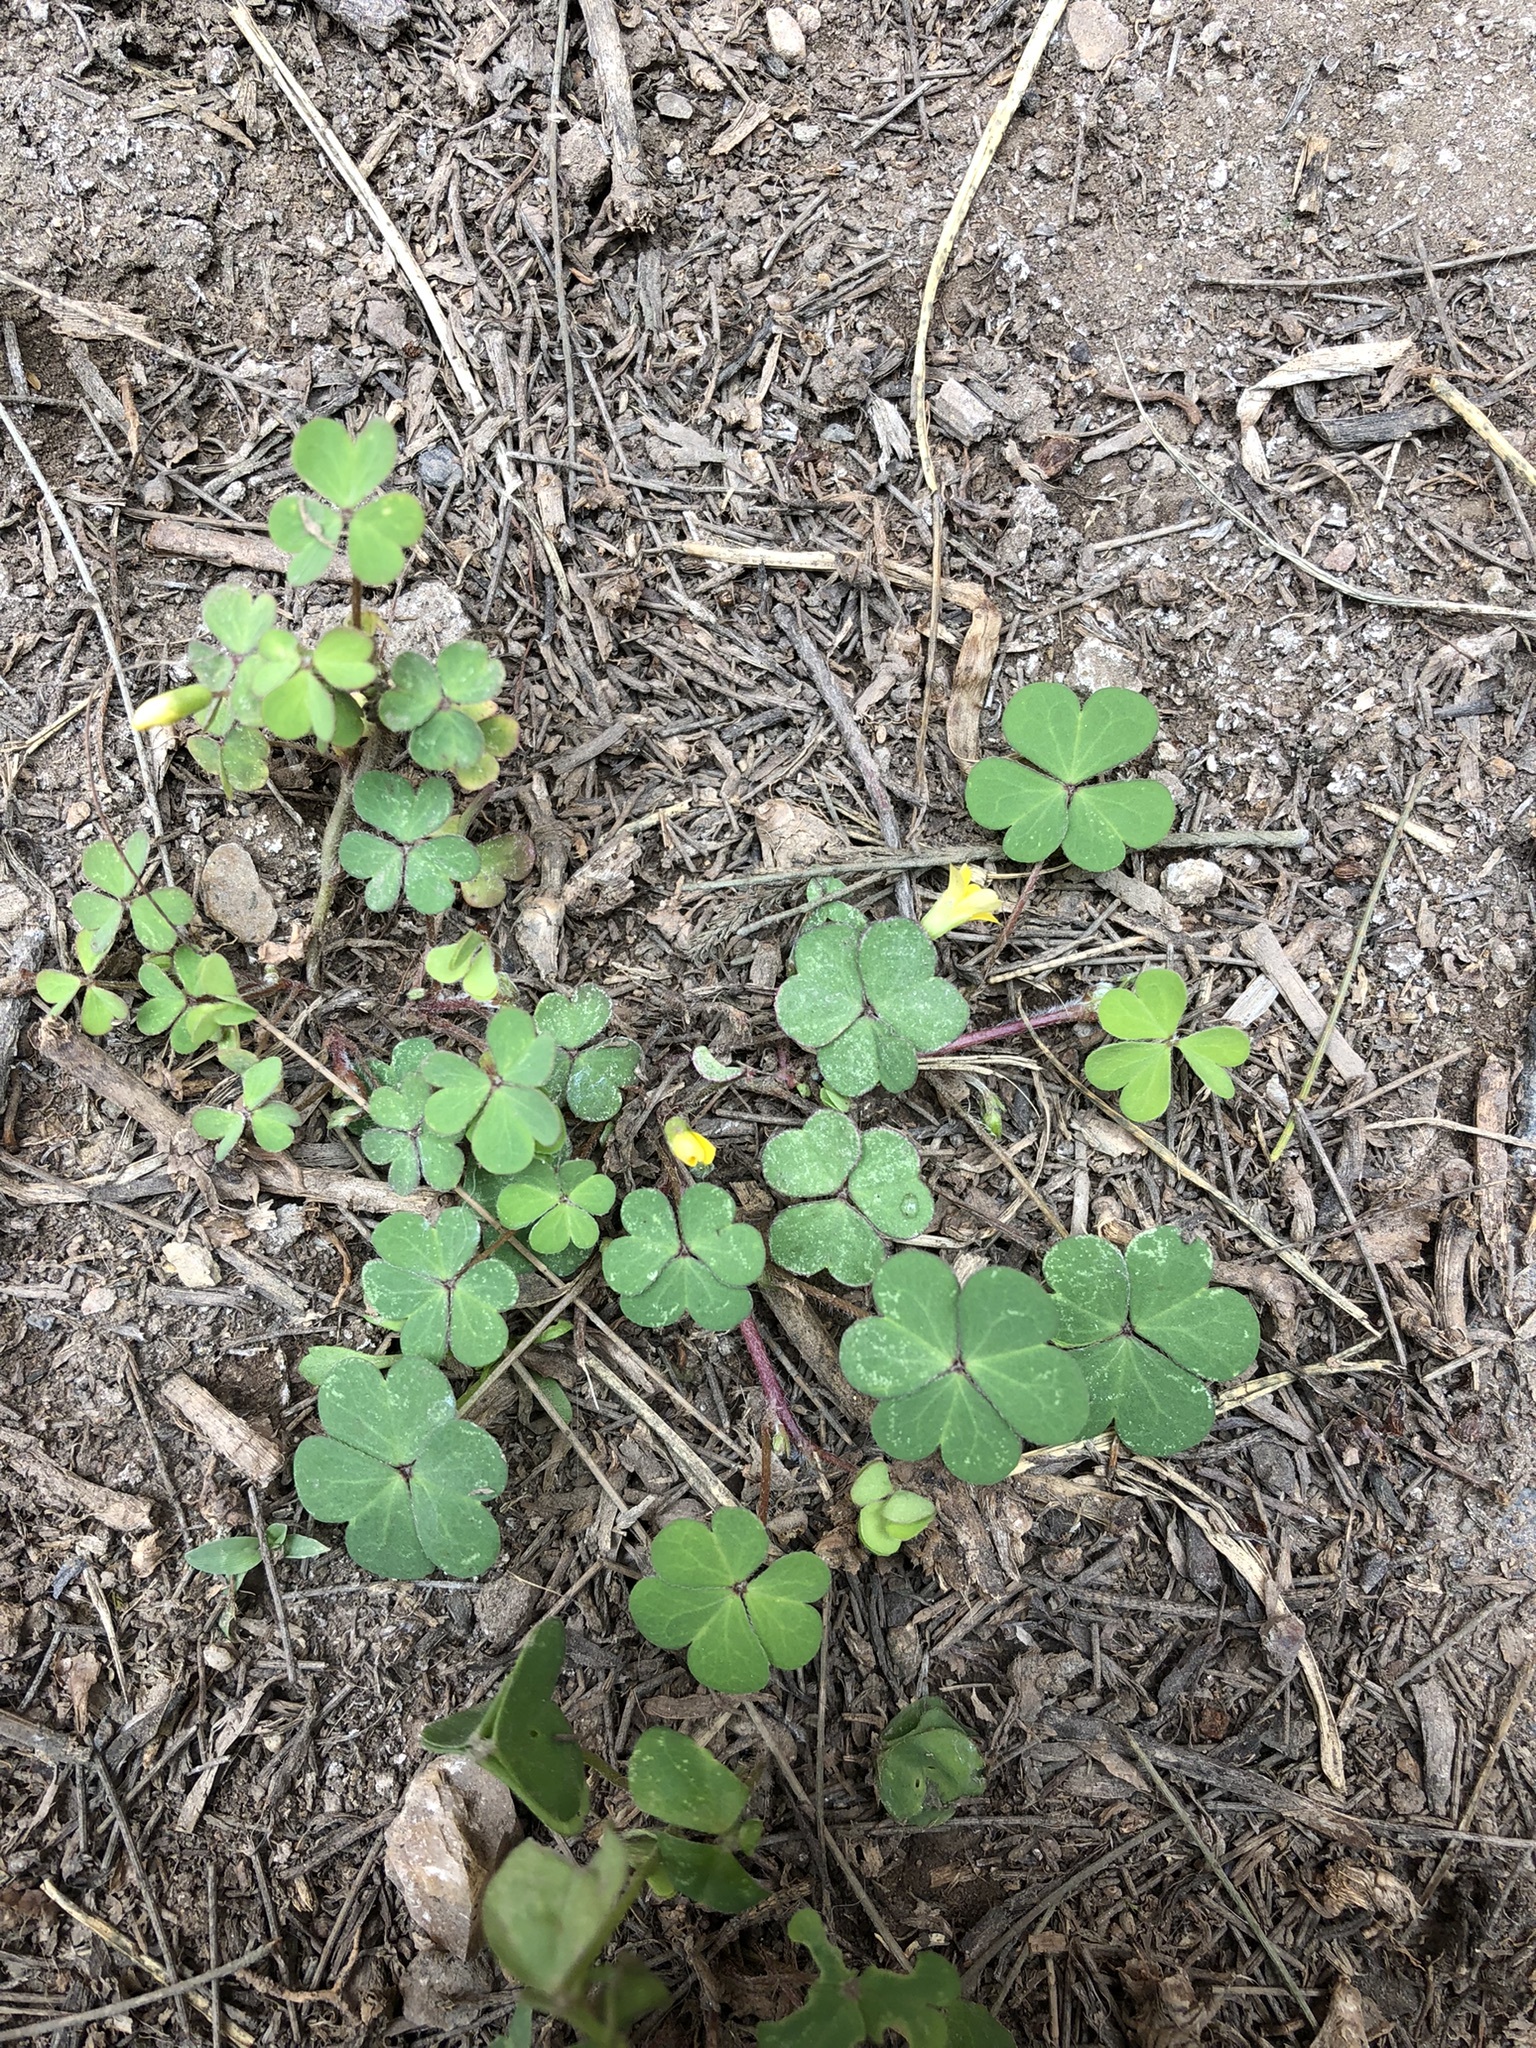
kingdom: Plantae
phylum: Tracheophyta
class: Magnoliopsida
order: Oxalidales
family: Oxalidaceae
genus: Oxalis
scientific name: Oxalis corniculata
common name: Procumbent yellow-sorrel
